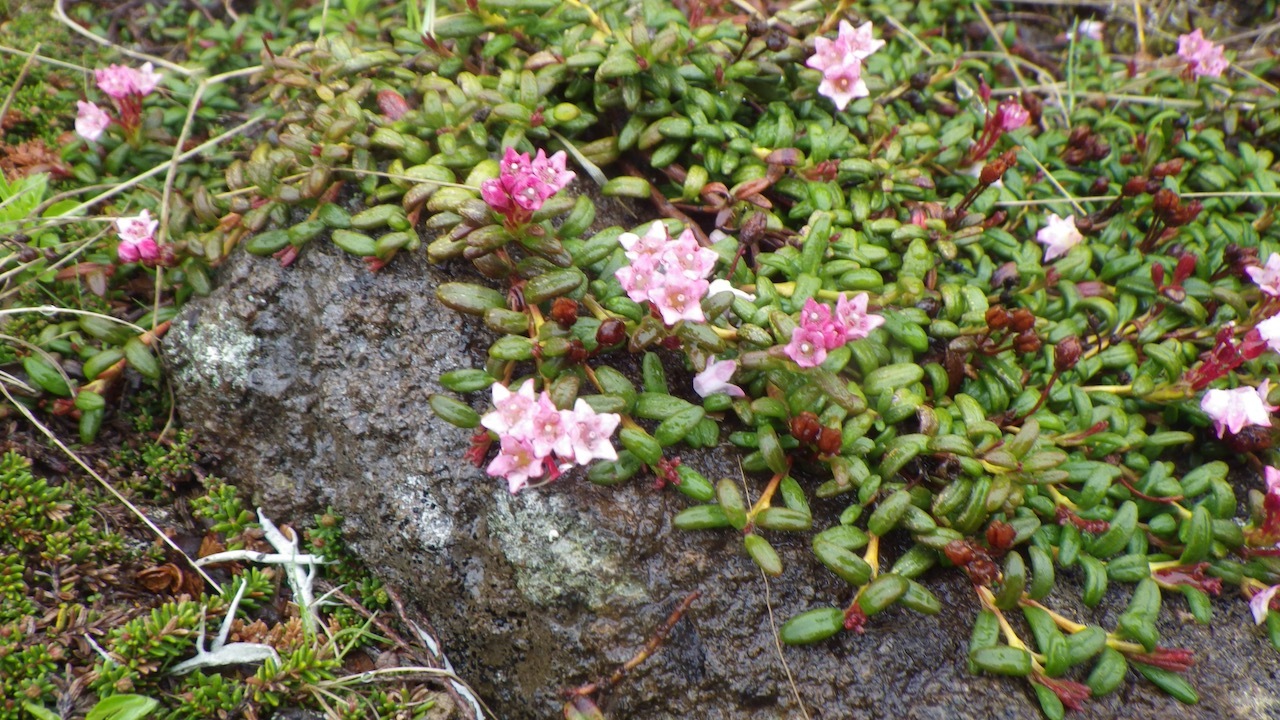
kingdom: Plantae
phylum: Tracheophyta
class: Magnoliopsida
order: Ericales
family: Ericaceae
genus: Kalmia
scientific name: Kalmia procumbens
